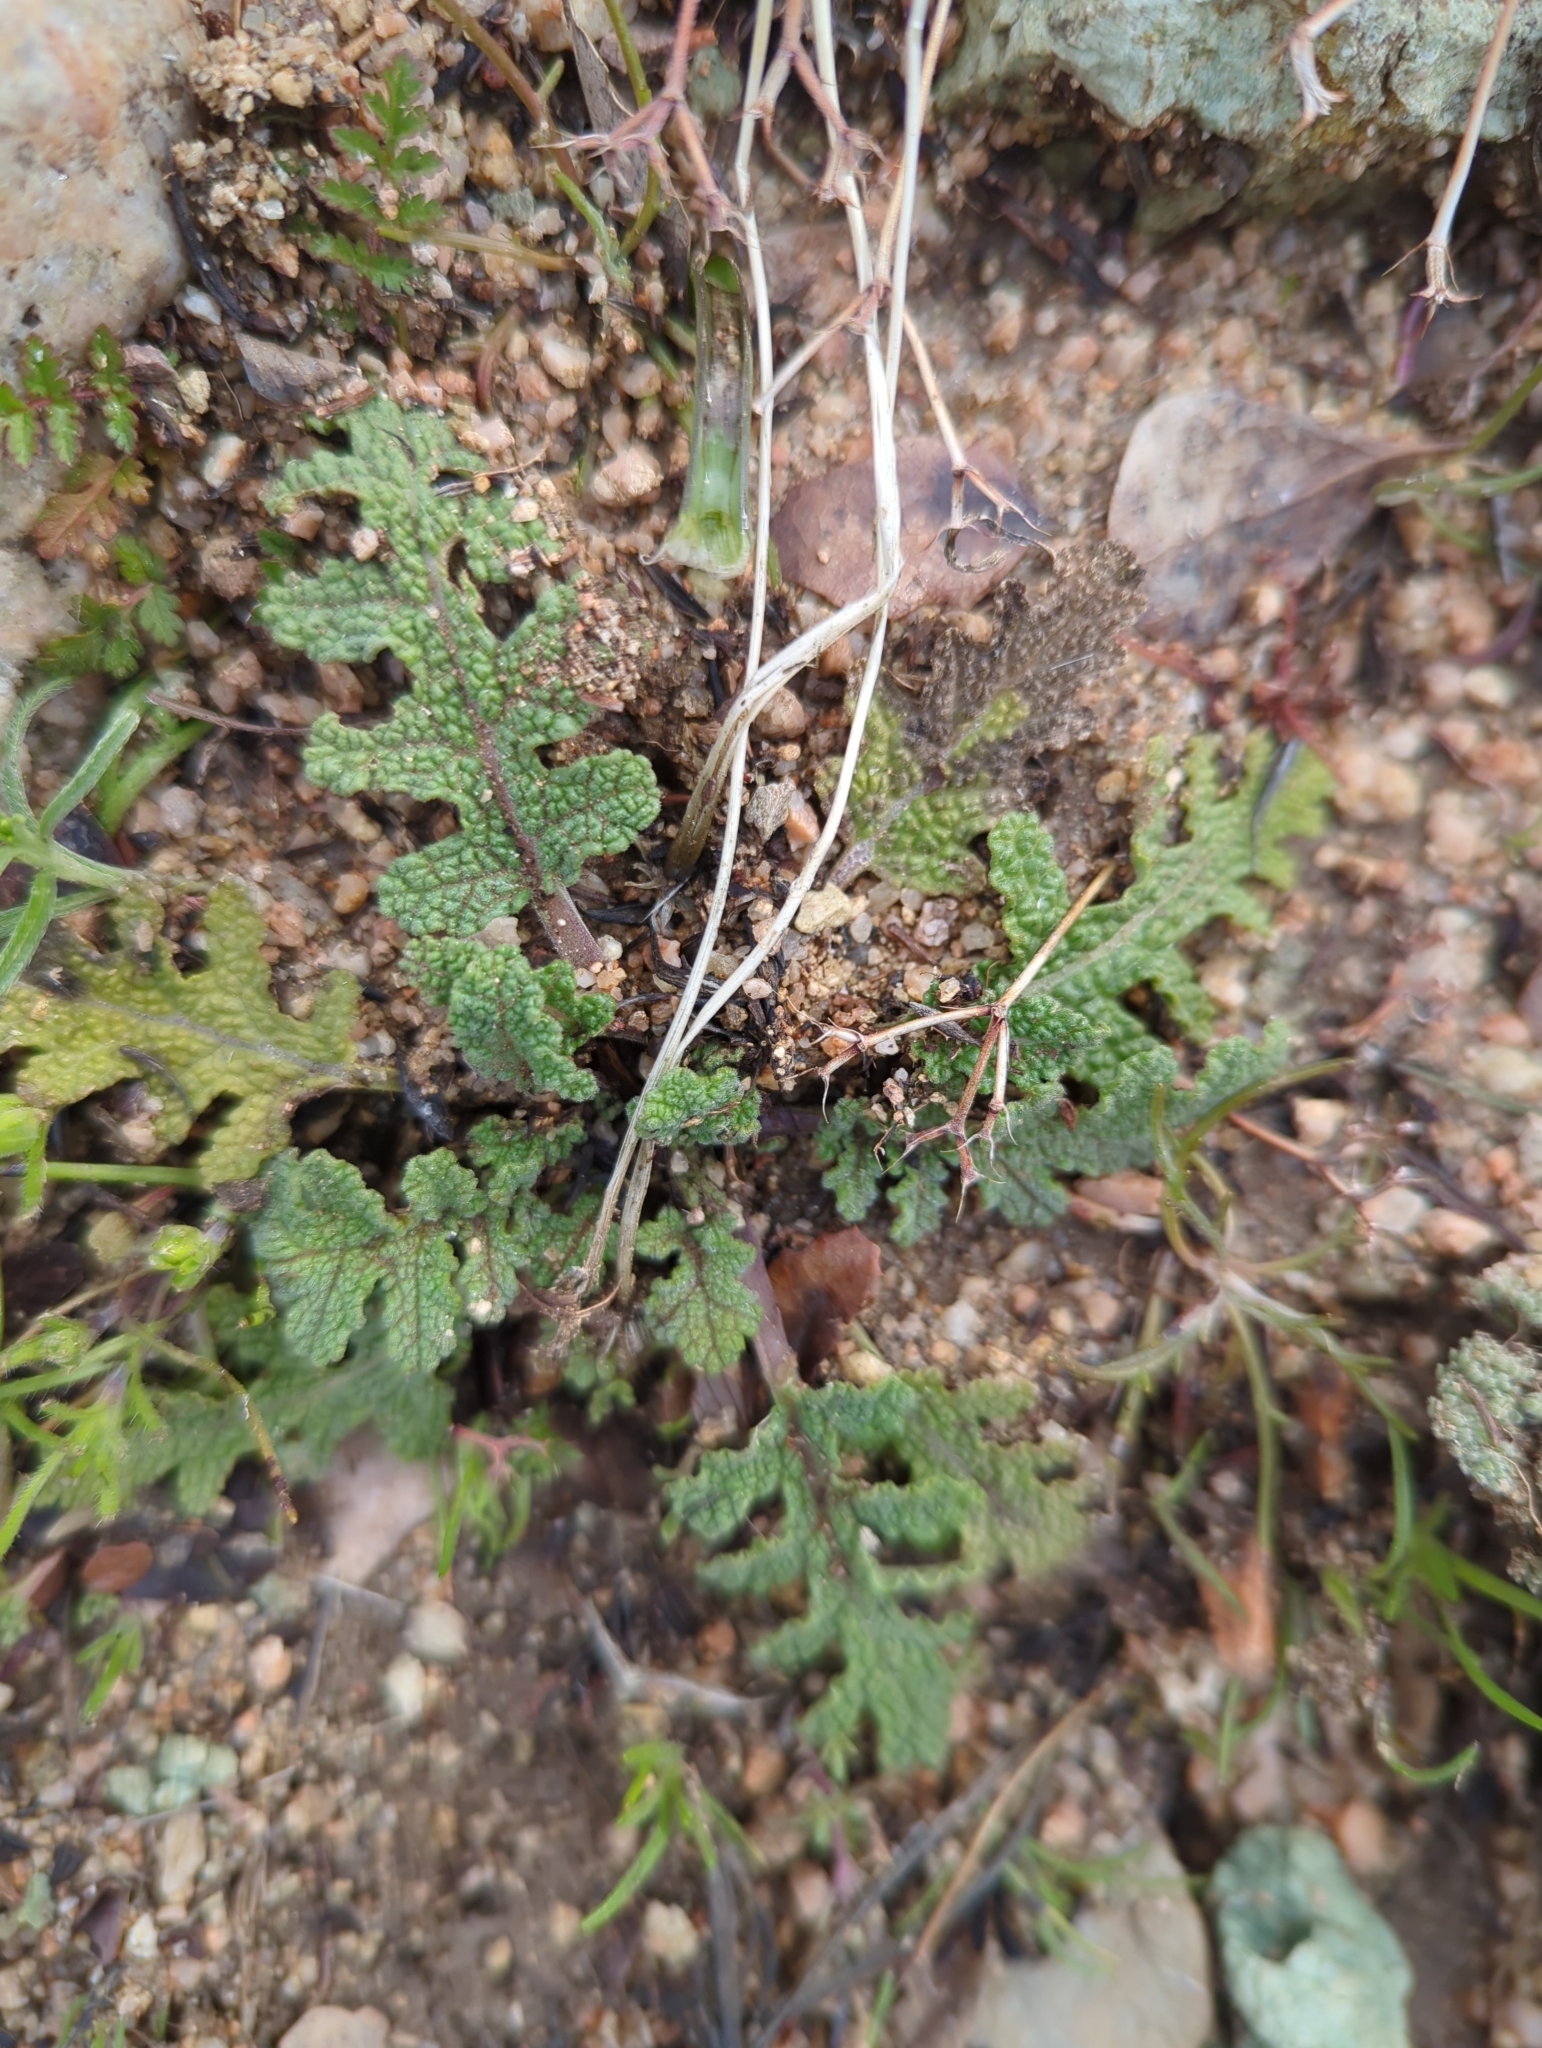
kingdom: Plantae
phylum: Tracheophyta
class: Magnoliopsida
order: Lamiales
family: Lamiaceae
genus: Salvia
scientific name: Salvia columbariae
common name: Chia
